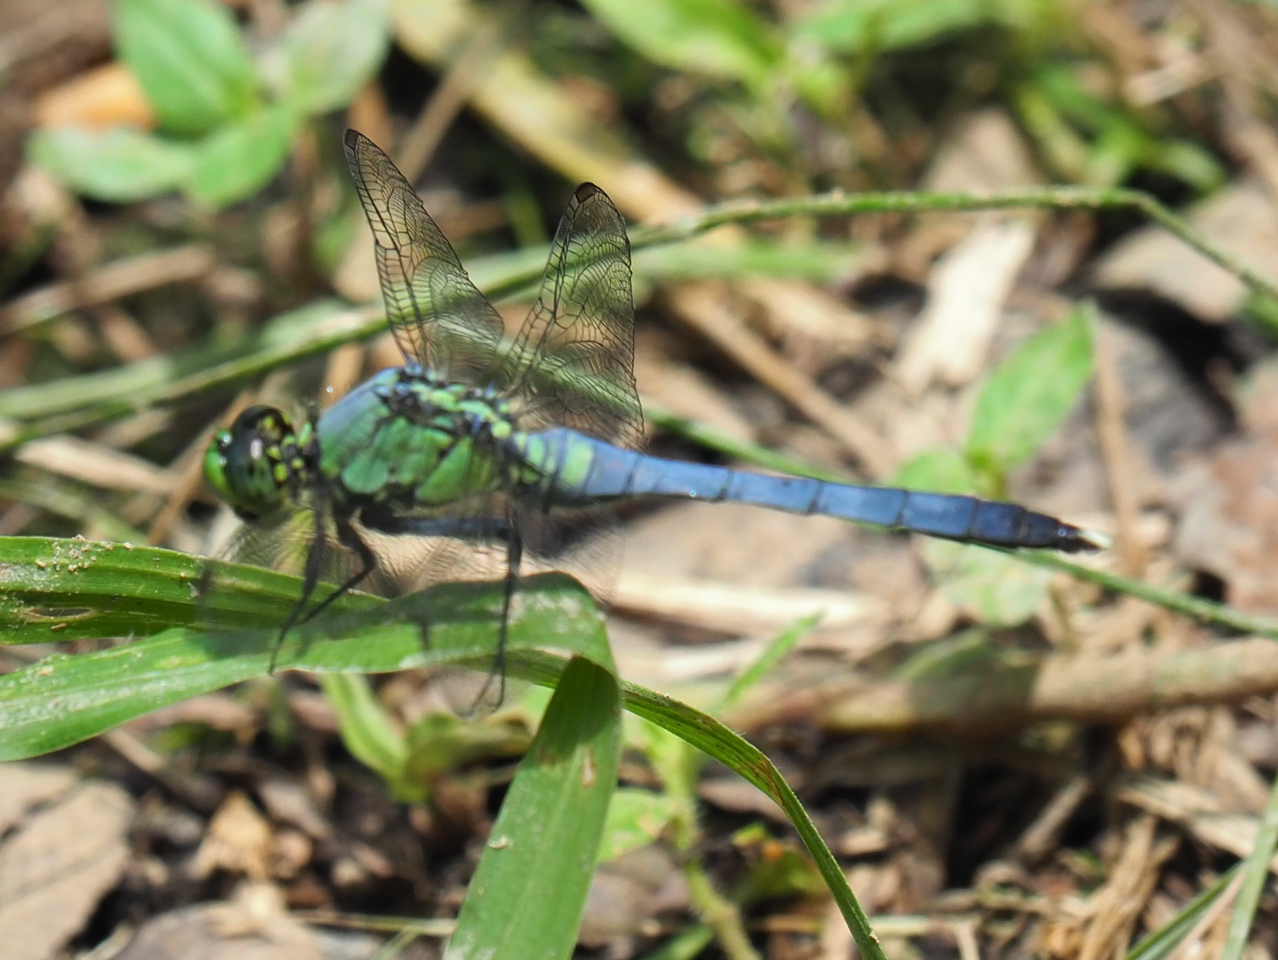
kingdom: Animalia
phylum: Arthropoda
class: Insecta
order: Odonata
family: Libellulidae
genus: Erythemis
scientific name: Erythemis simplicicollis
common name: Eastern pondhawk
